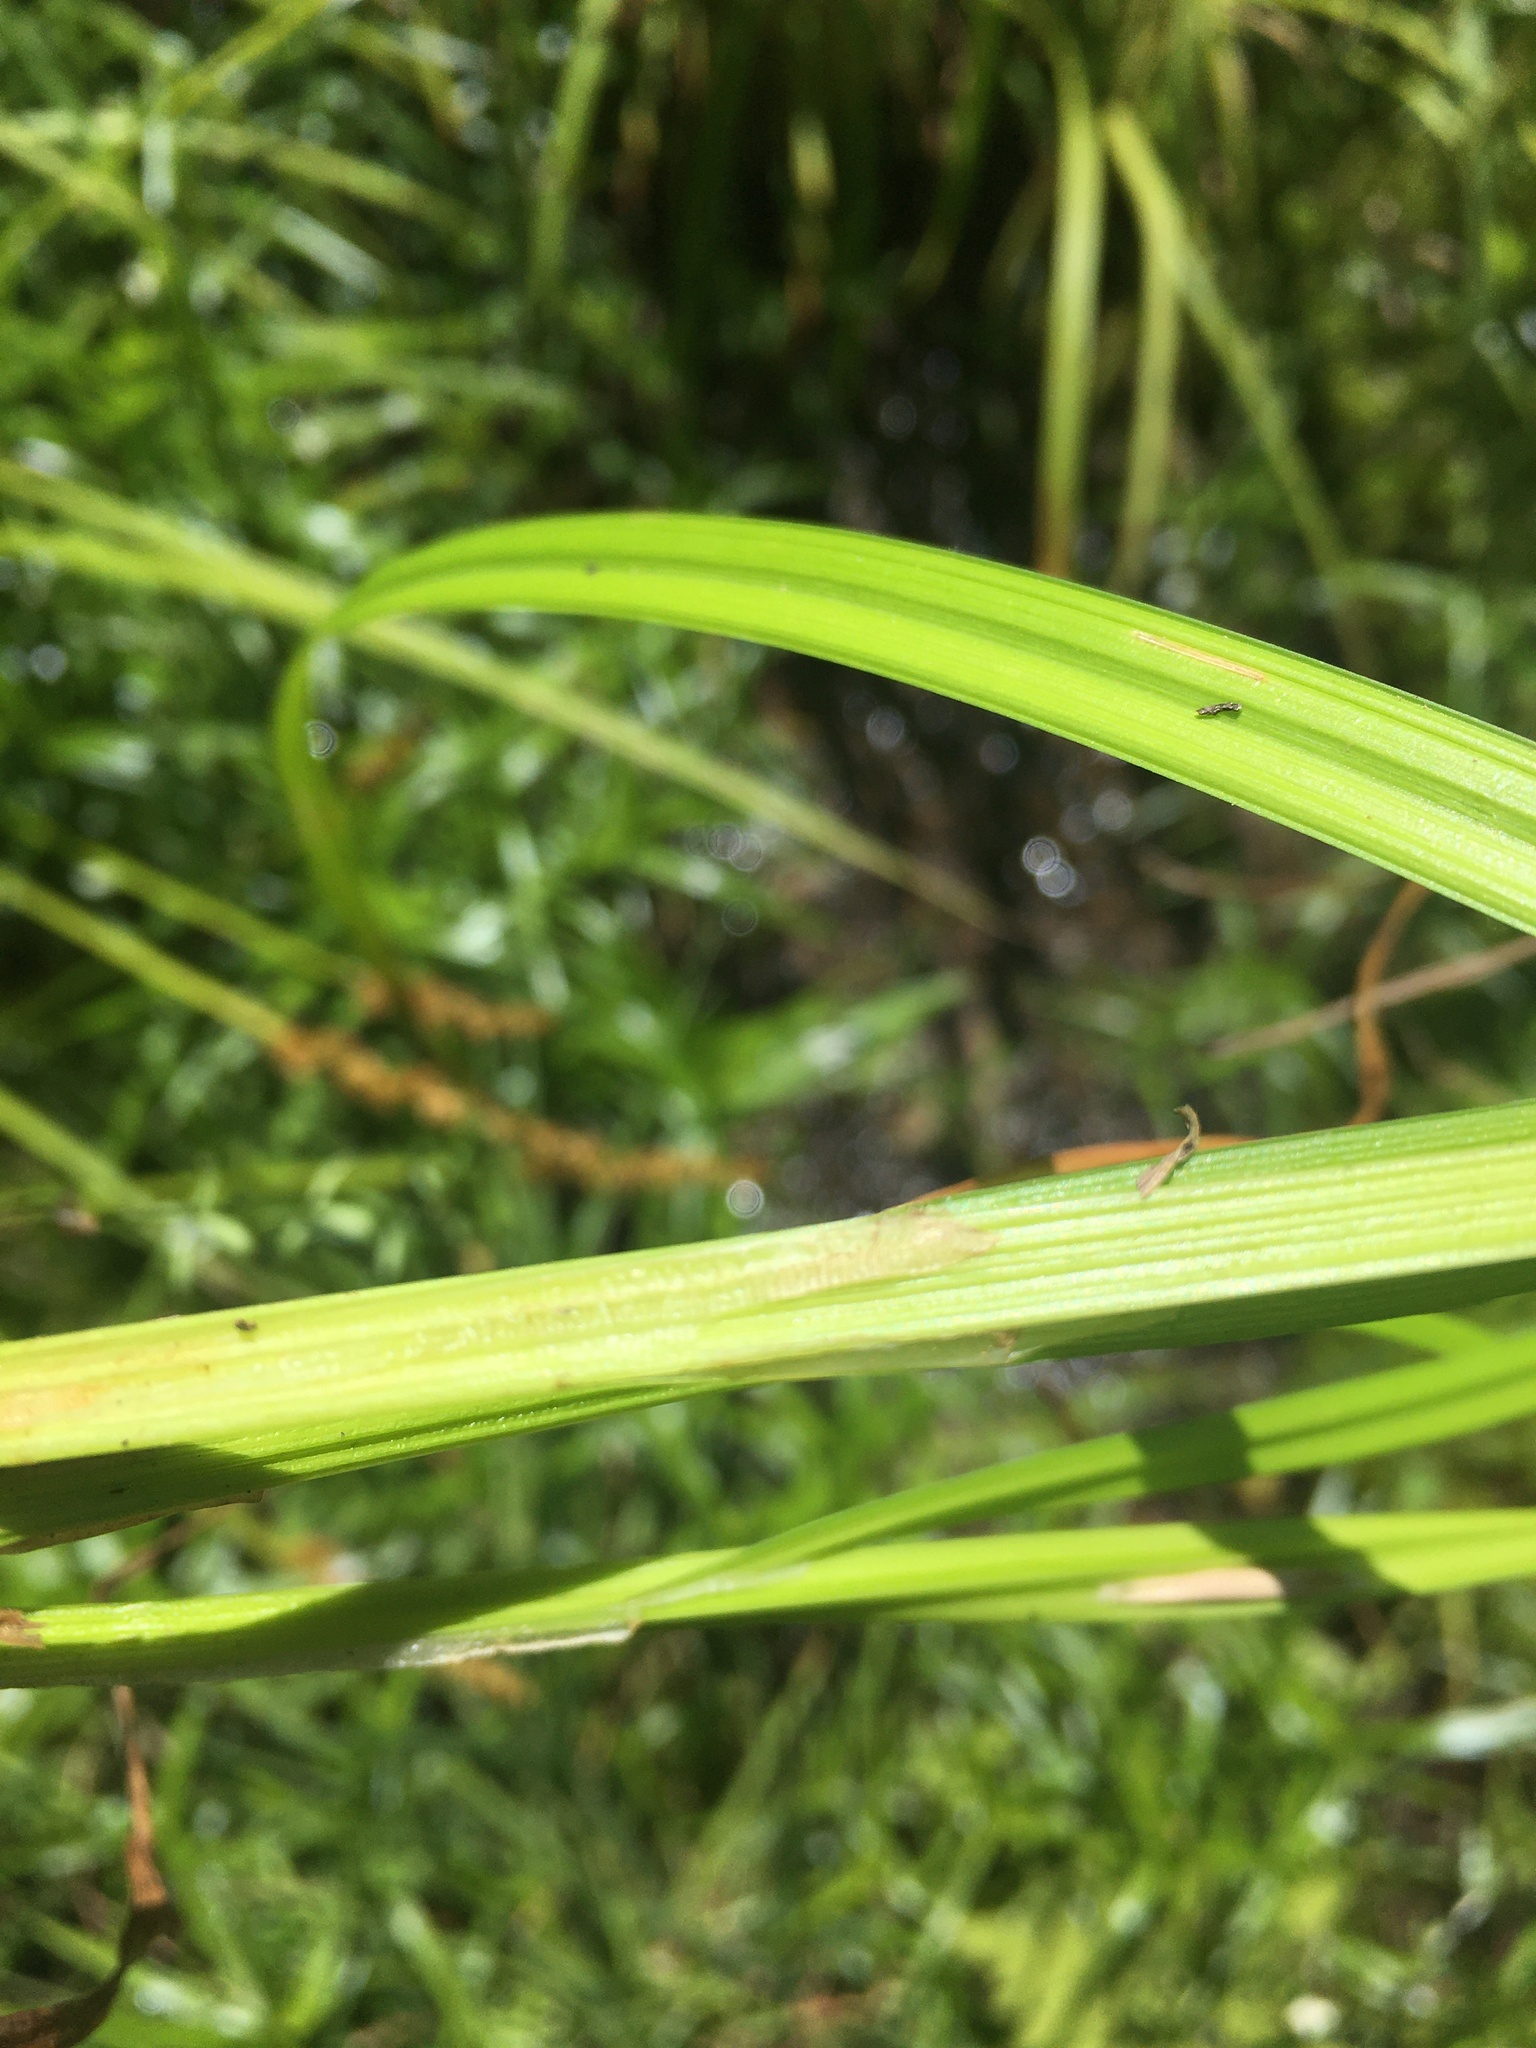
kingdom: Plantae
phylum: Tracheophyta
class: Liliopsida
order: Poales
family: Cyperaceae
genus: Carex
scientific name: Carex stipata
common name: Awl-fruited sedge
